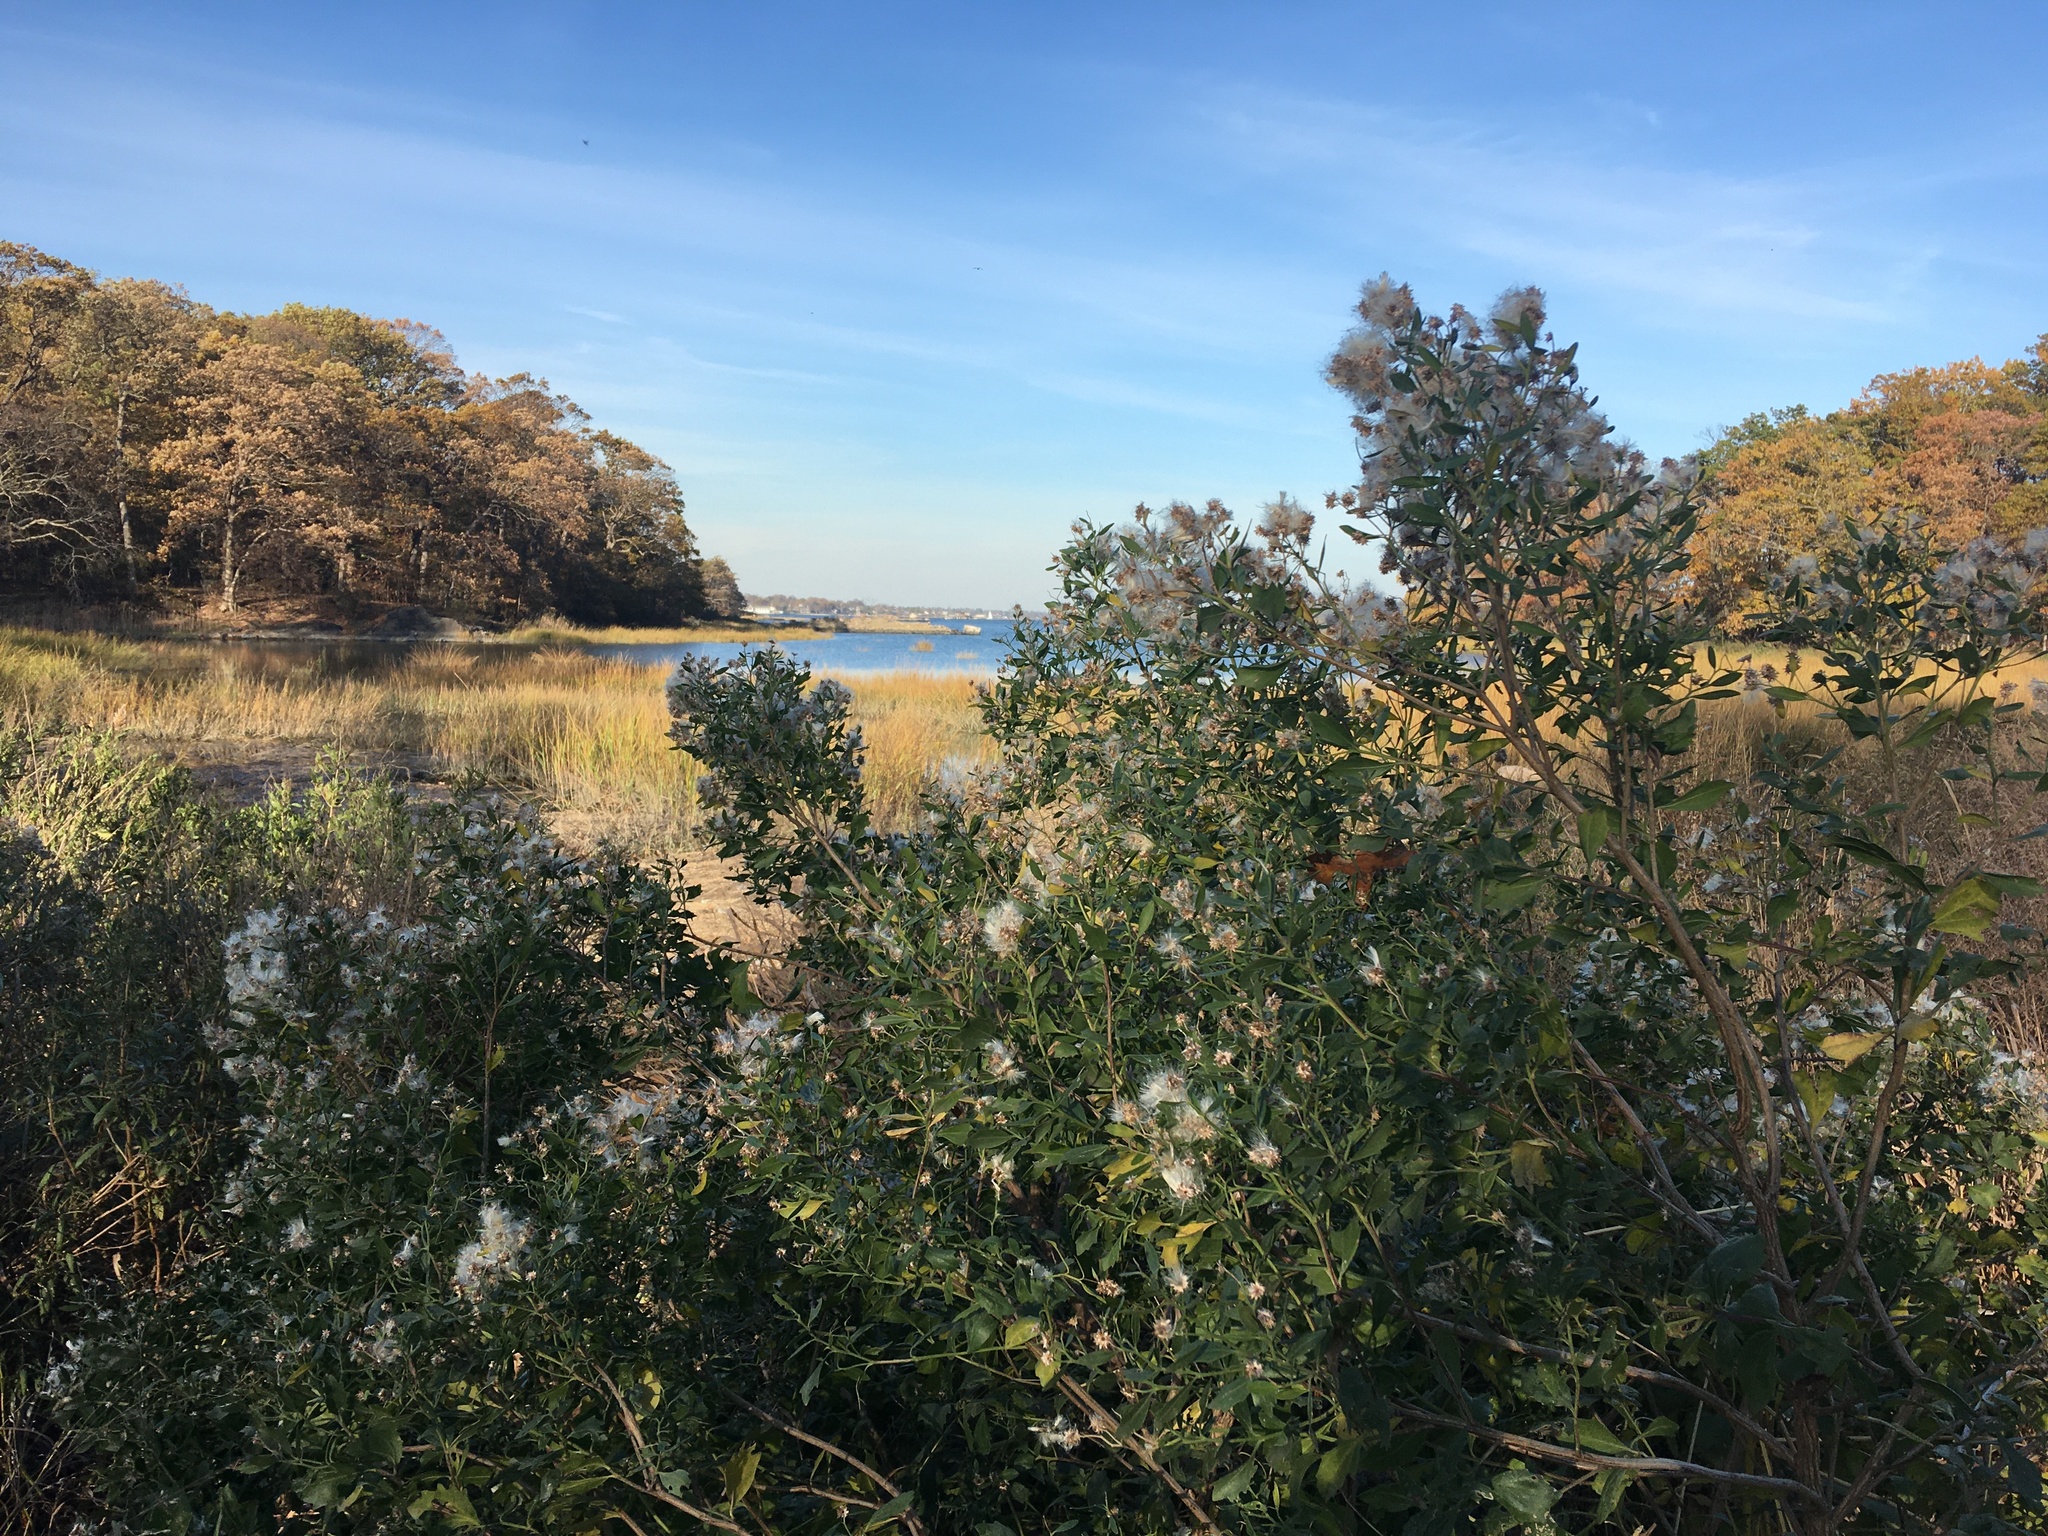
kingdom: Plantae
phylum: Tracheophyta
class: Magnoliopsida
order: Asterales
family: Asteraceae
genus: Baccharis
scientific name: Baccharis halimifolia
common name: Eastern baccharis
